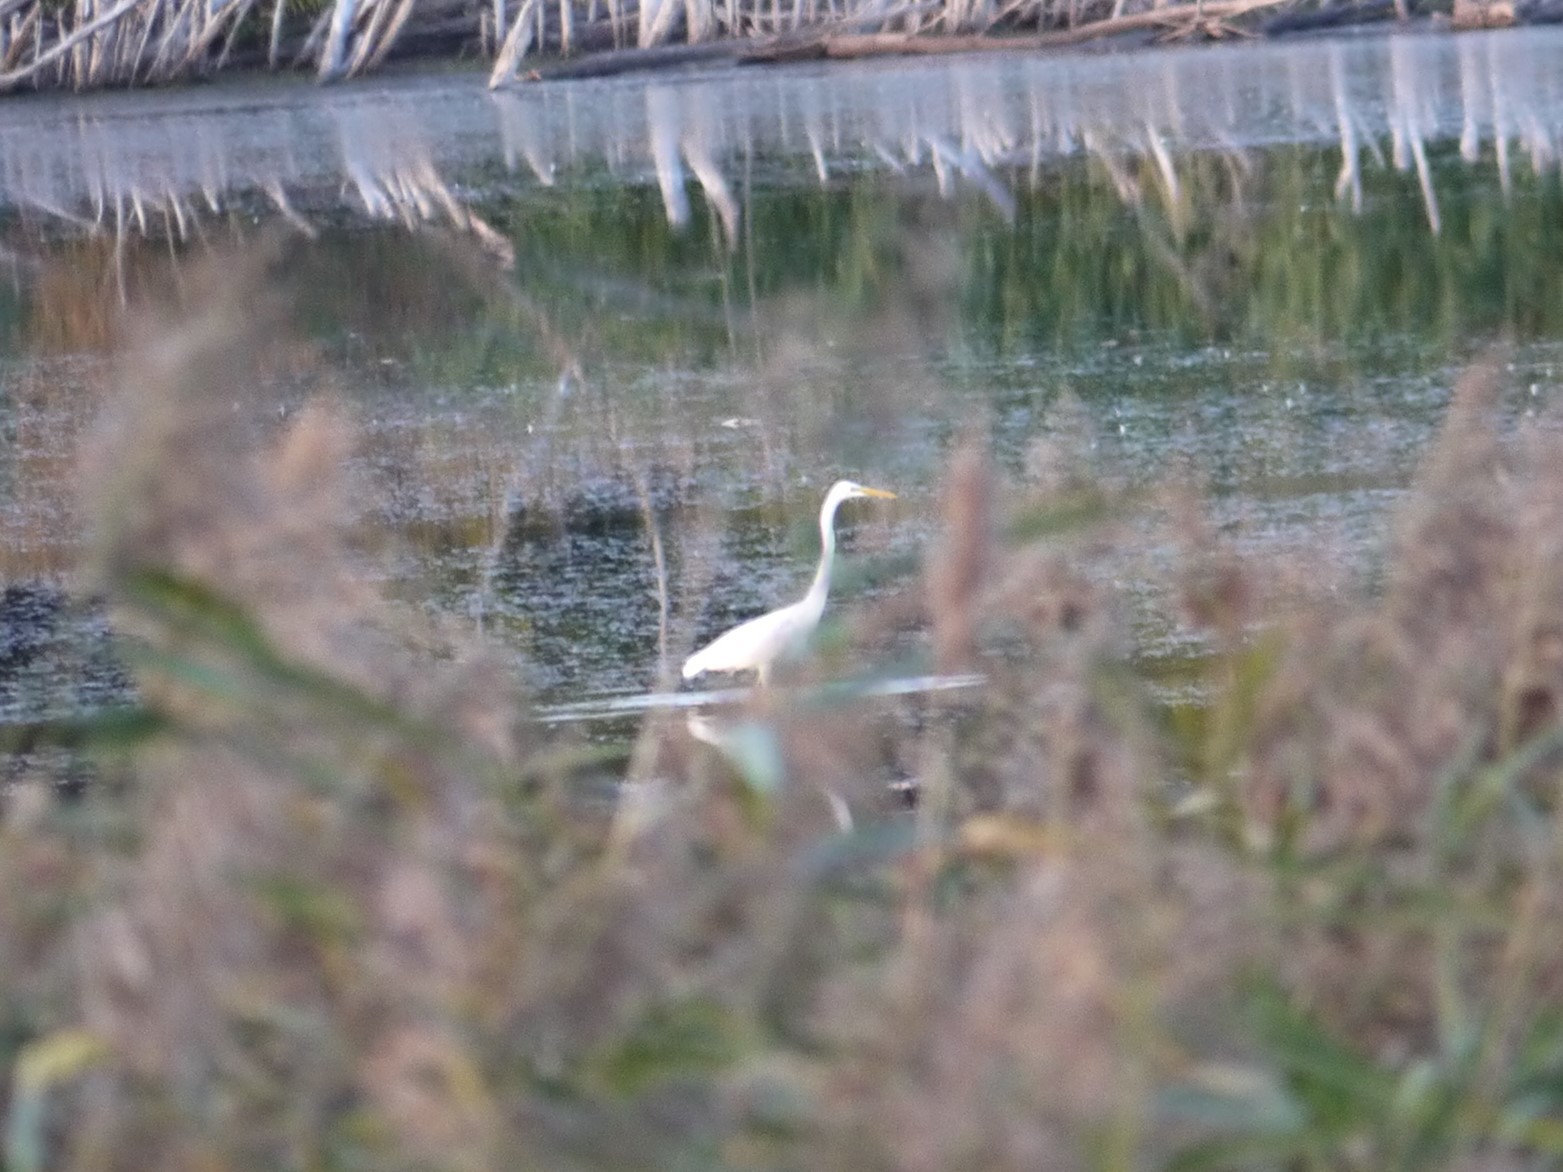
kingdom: Animalia
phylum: Chordata
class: Aves
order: Pelecaniformes
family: Ardeidae
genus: Ardea
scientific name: Ardea alba
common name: Great egret
